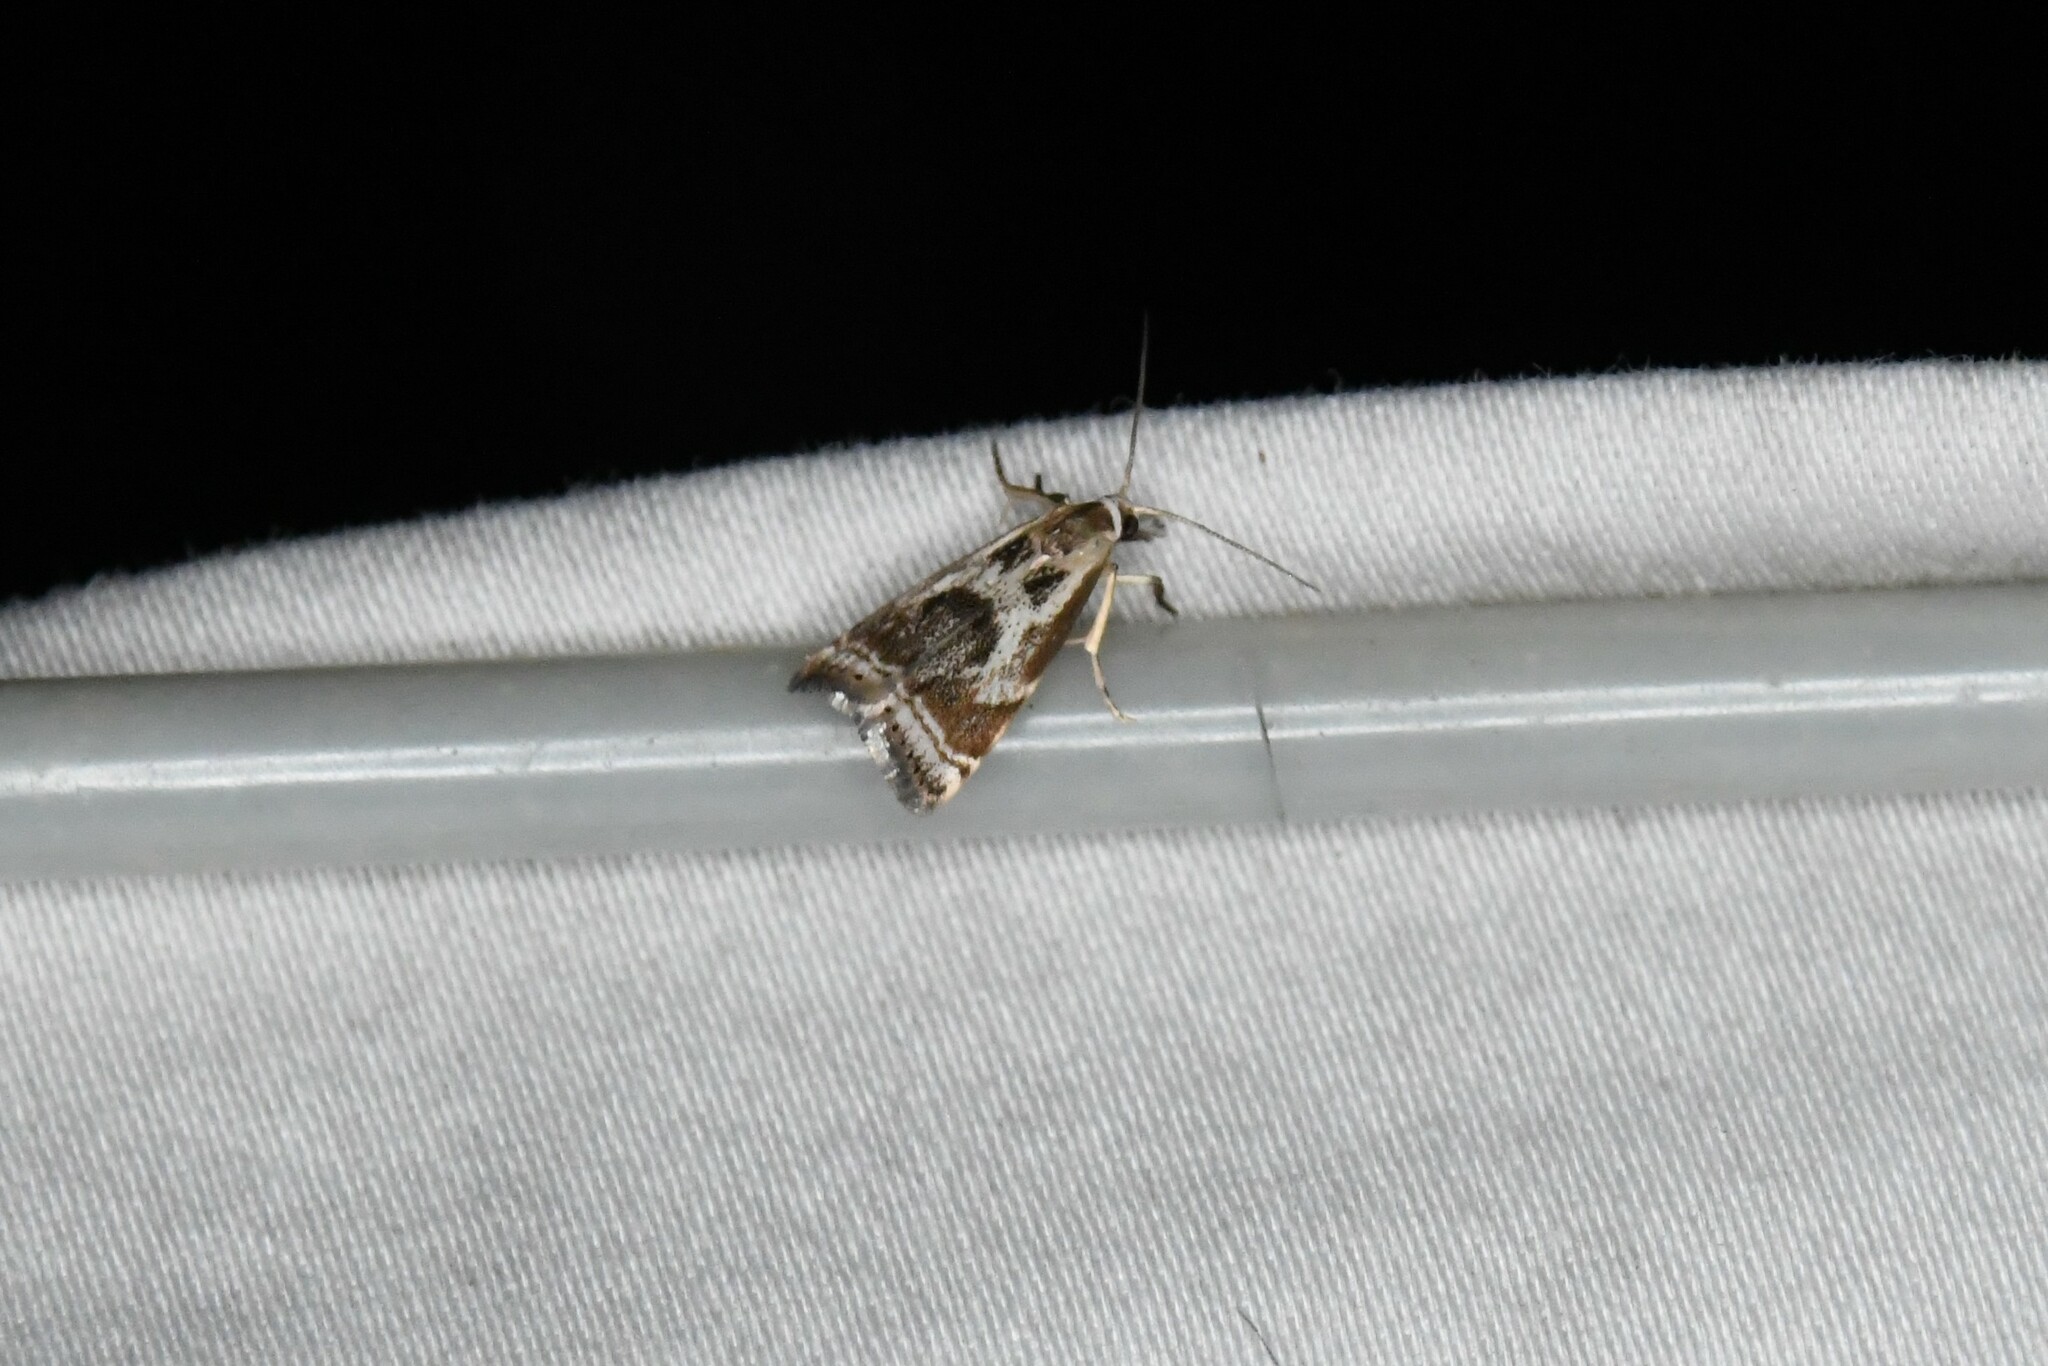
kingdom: Animalia
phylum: Arthropoda
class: Insecta
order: Lepidoptera
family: Crambidae
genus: Microcrambus
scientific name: Microcrambus elegans
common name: Elegant grass-veneer
